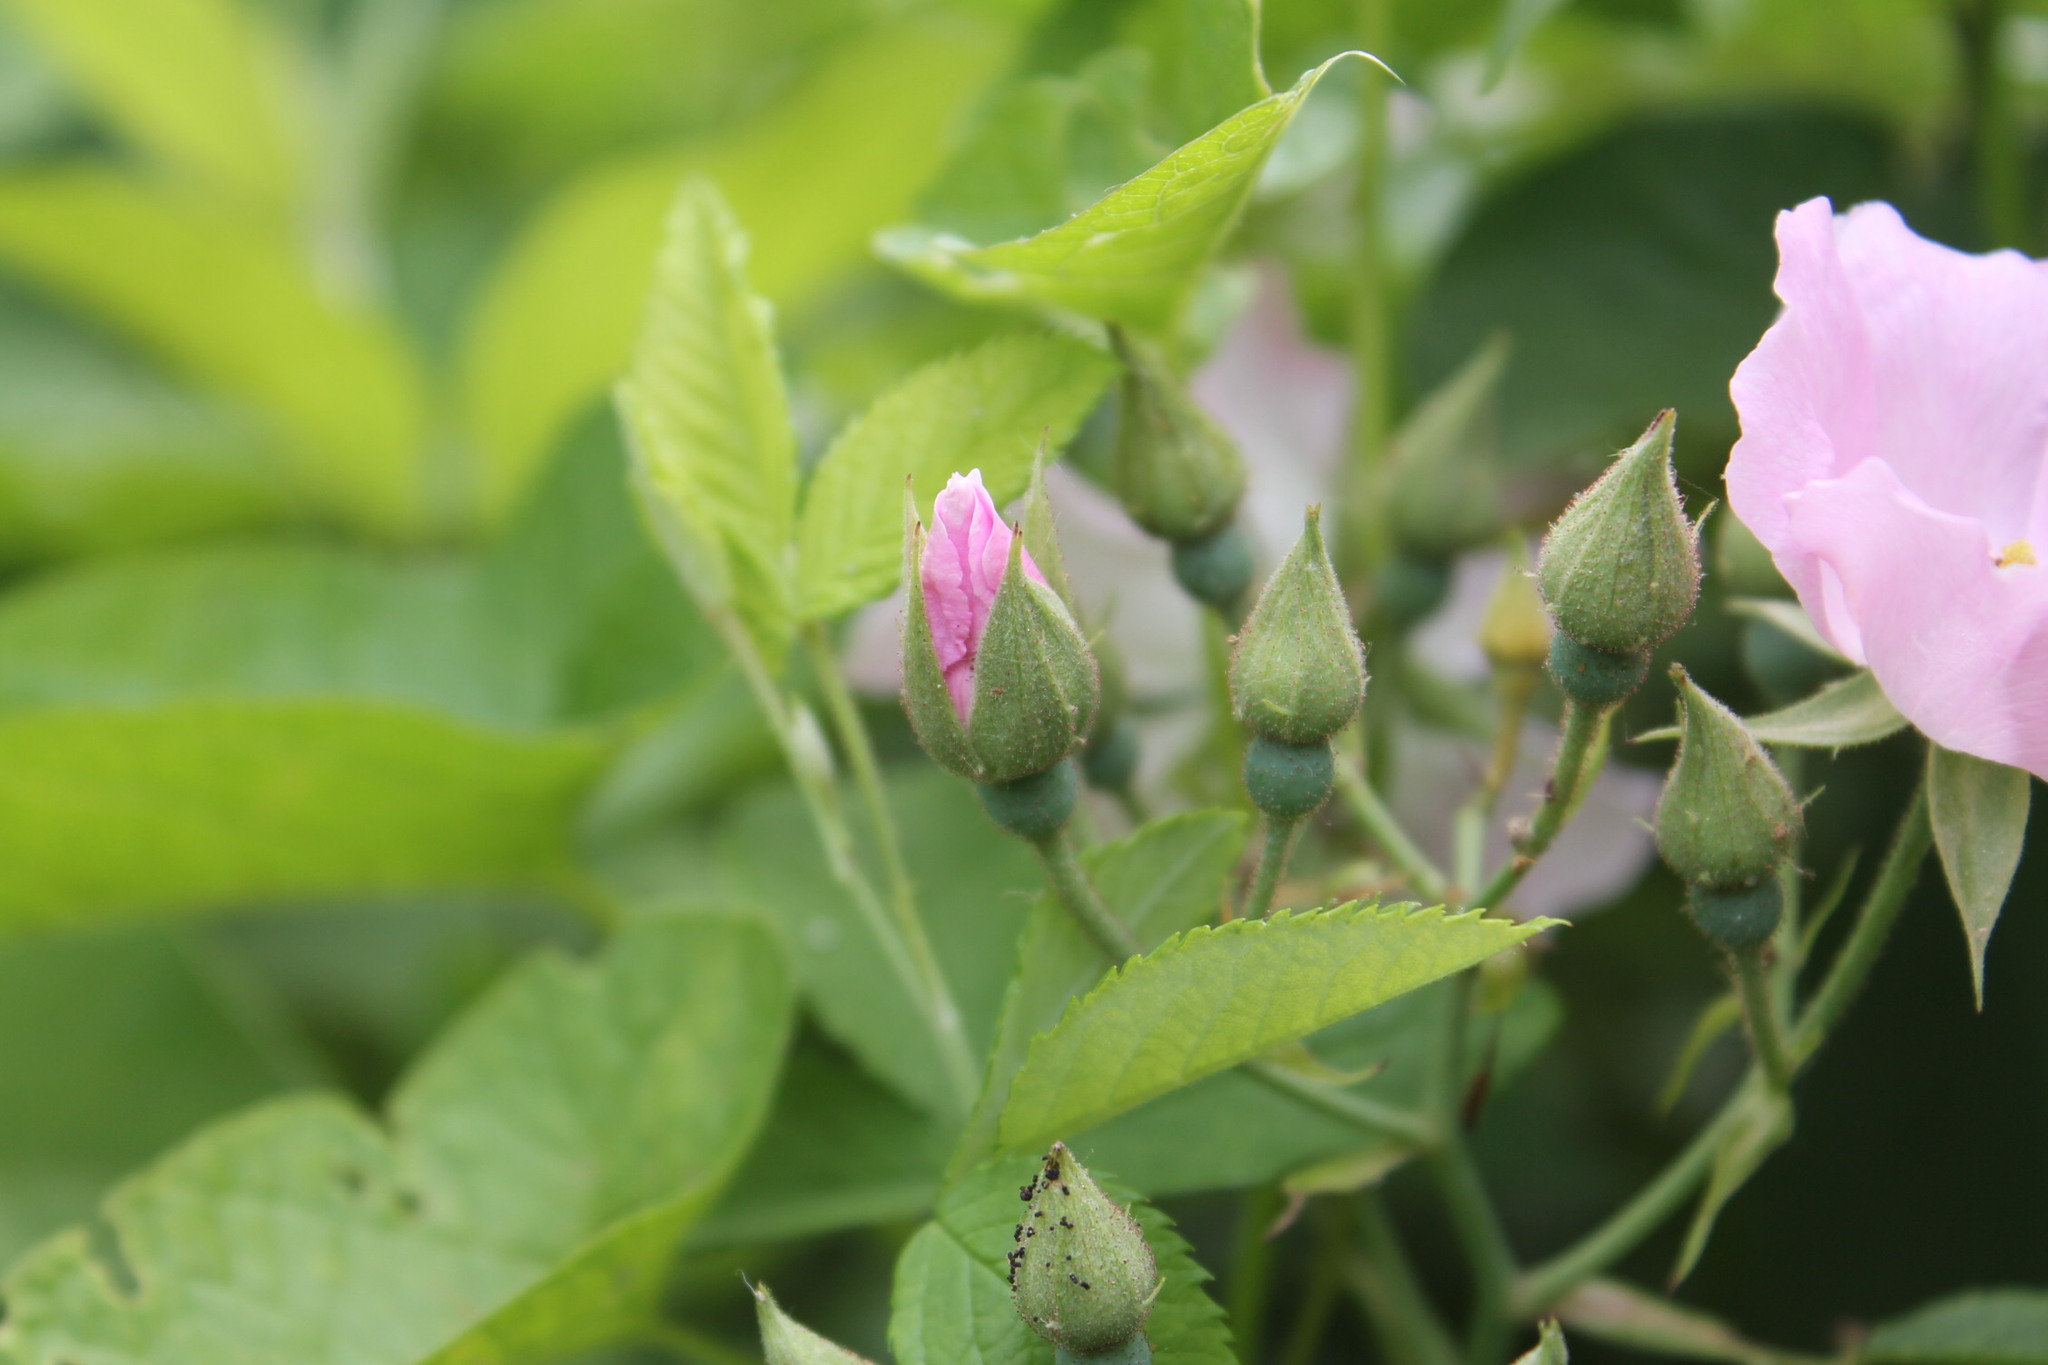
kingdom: Plantae
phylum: Tracheophyta
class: Magnoliopsida
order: Rosales
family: Rosaceae
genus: Rosa
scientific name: Rosa setigera
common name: Prairie rose
